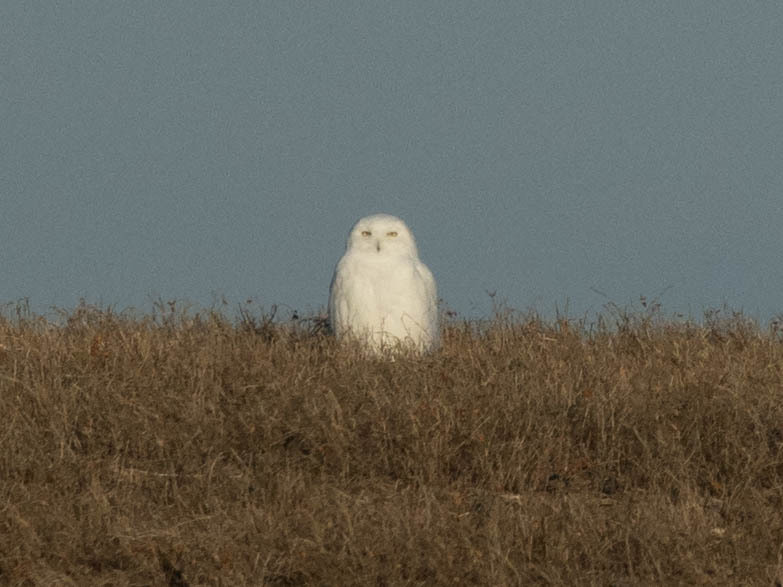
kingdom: Animalia
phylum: Chordata
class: Aves
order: Strigiformes
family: Strigidae
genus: Bubo
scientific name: Bubo scandiacus
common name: Snowy owl
